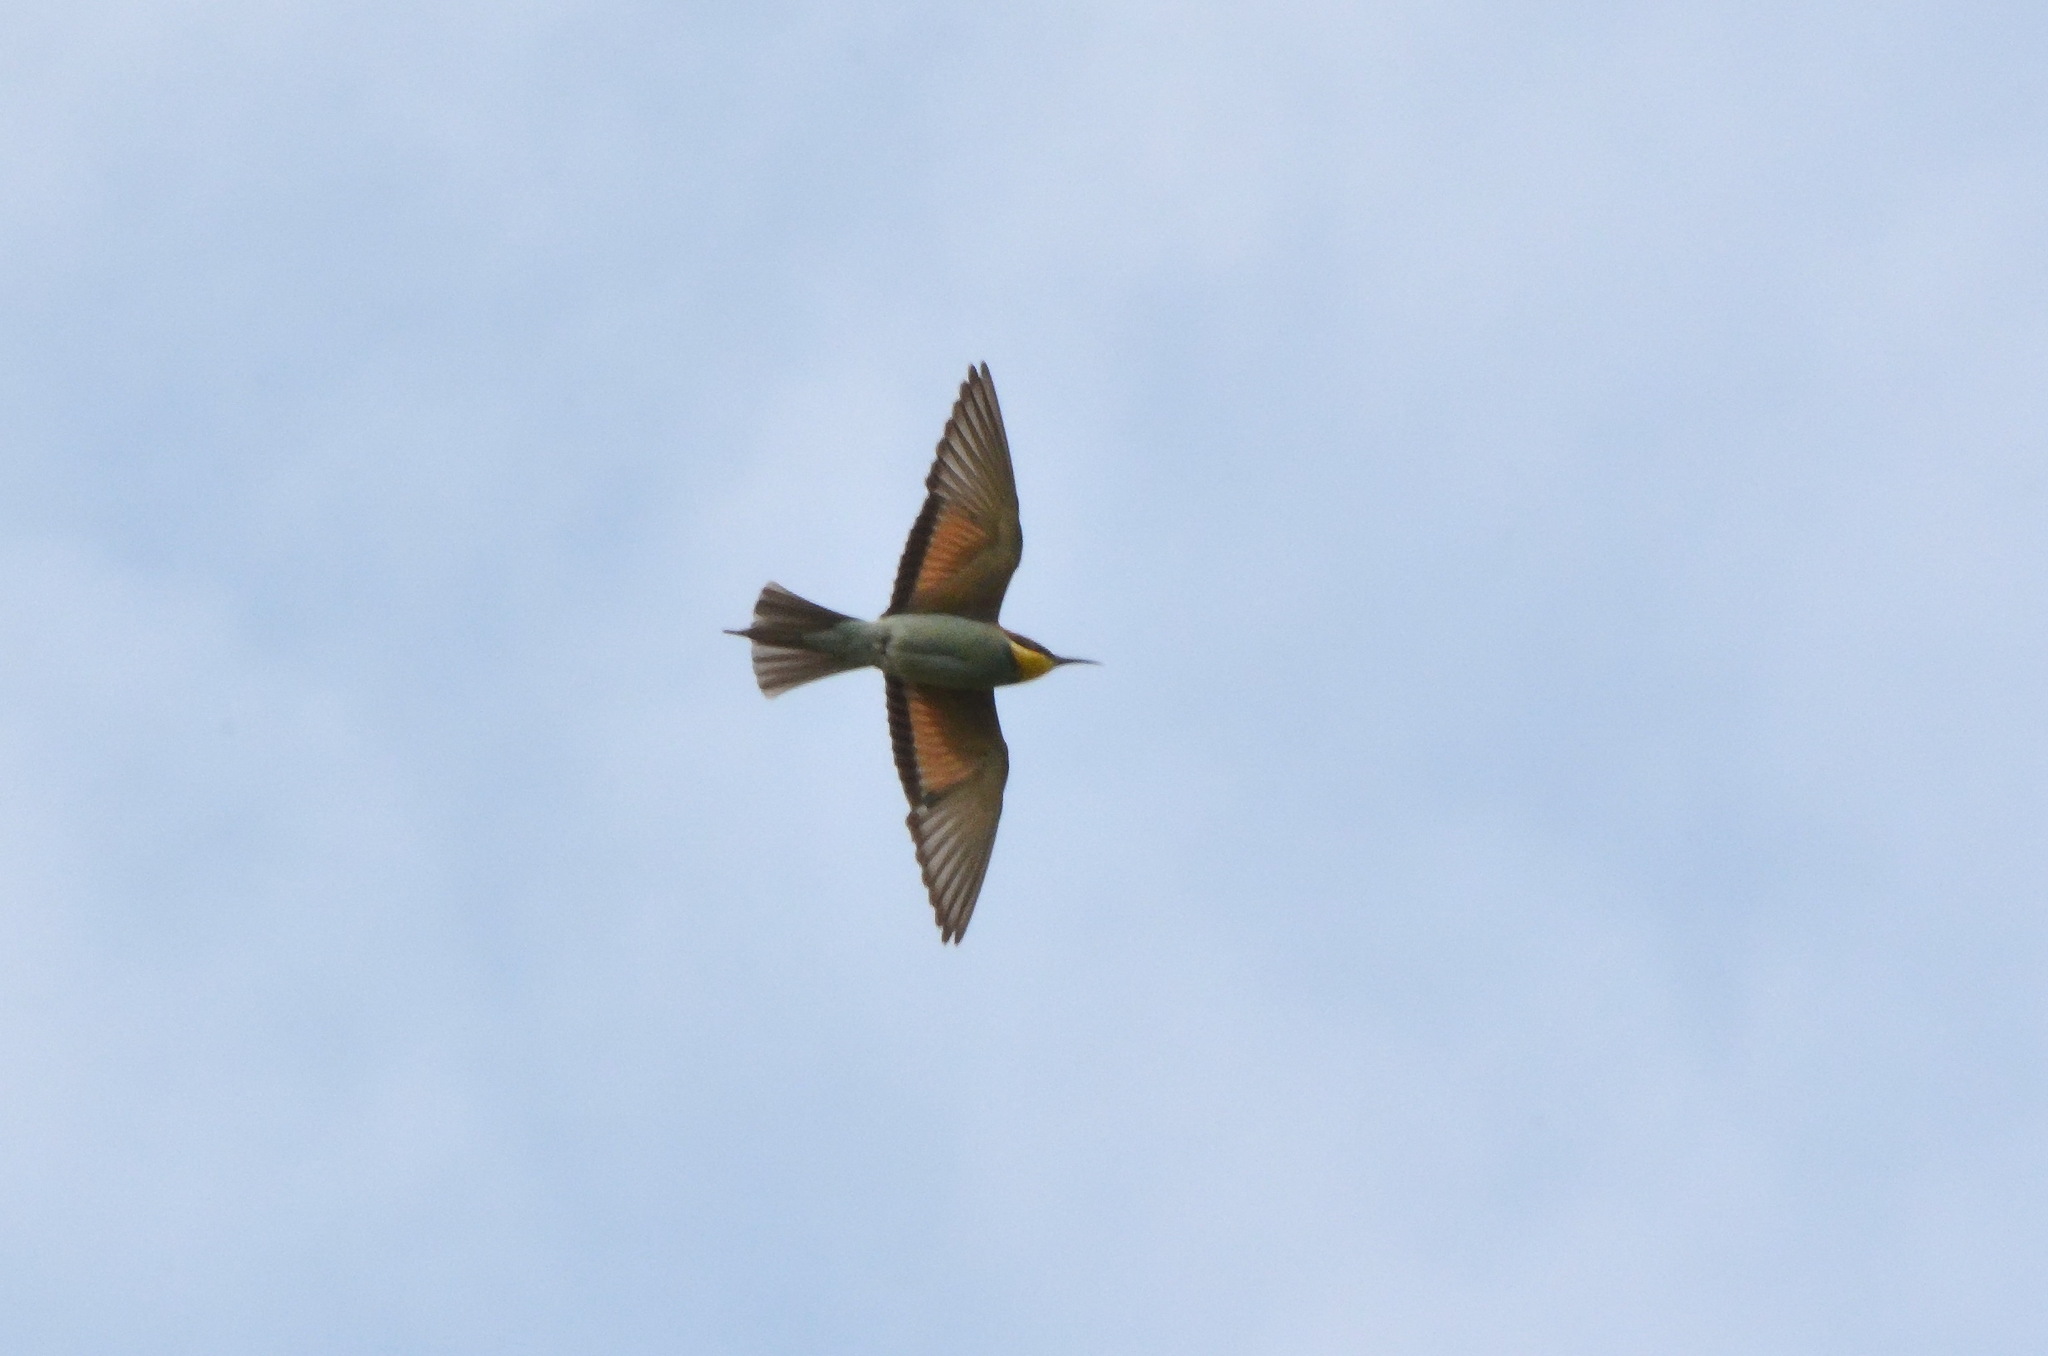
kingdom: Animalia
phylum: Chordata
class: Aves
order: Coraciiformes
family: Meropidae
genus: Merops
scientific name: Merops apiaster
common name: European bee-eater
